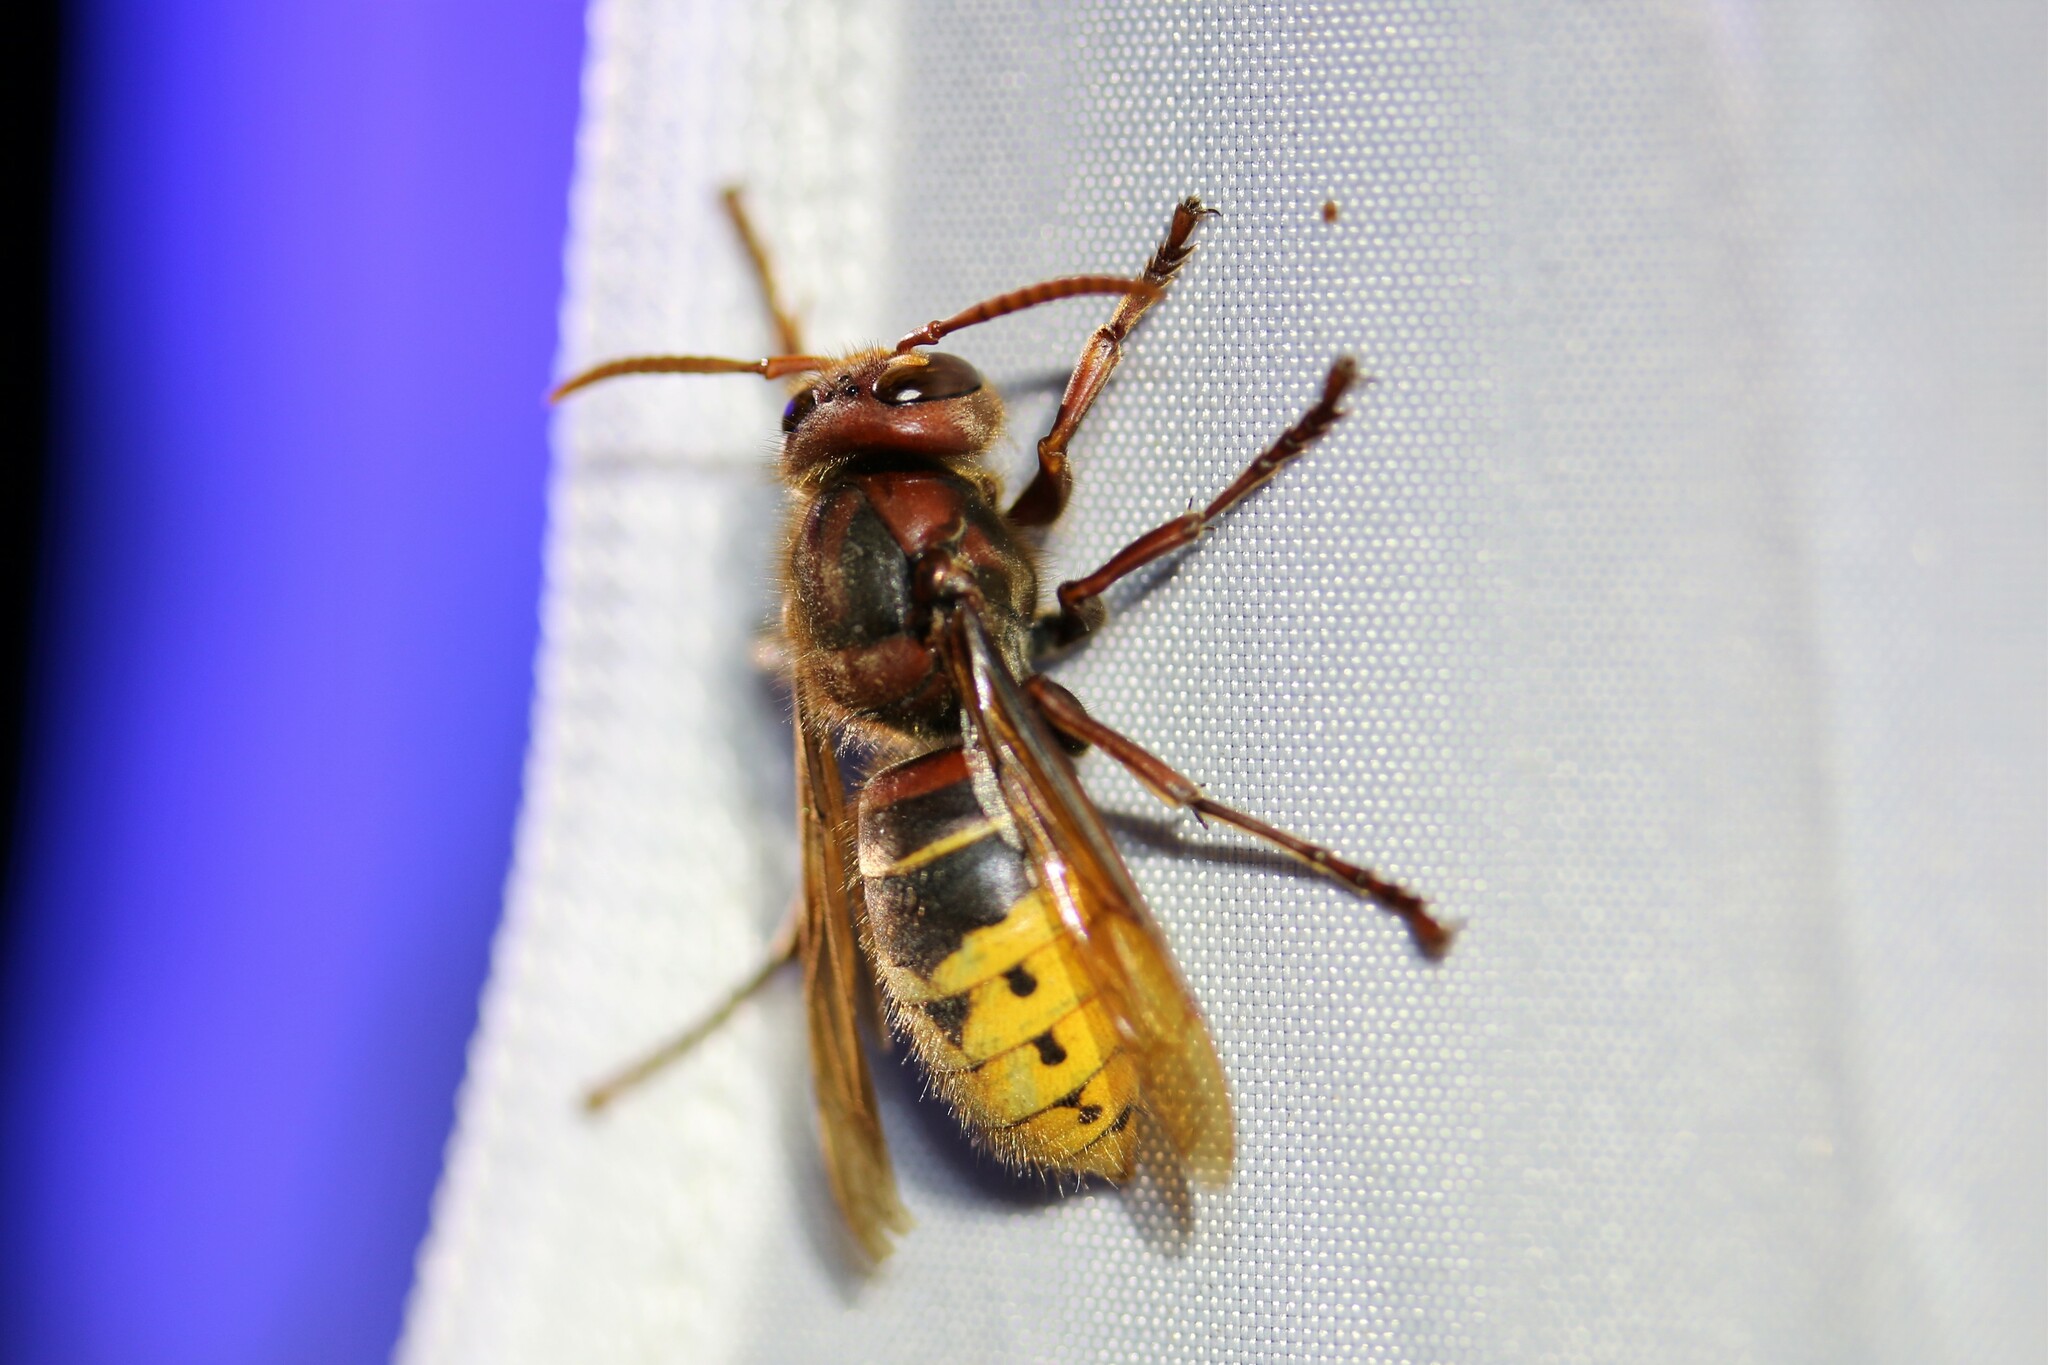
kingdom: Animalia
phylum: Arthropoda
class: Insecta
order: Hymenoptera
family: Vespidae
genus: Vespa
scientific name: Vespa crabro
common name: Hornet
